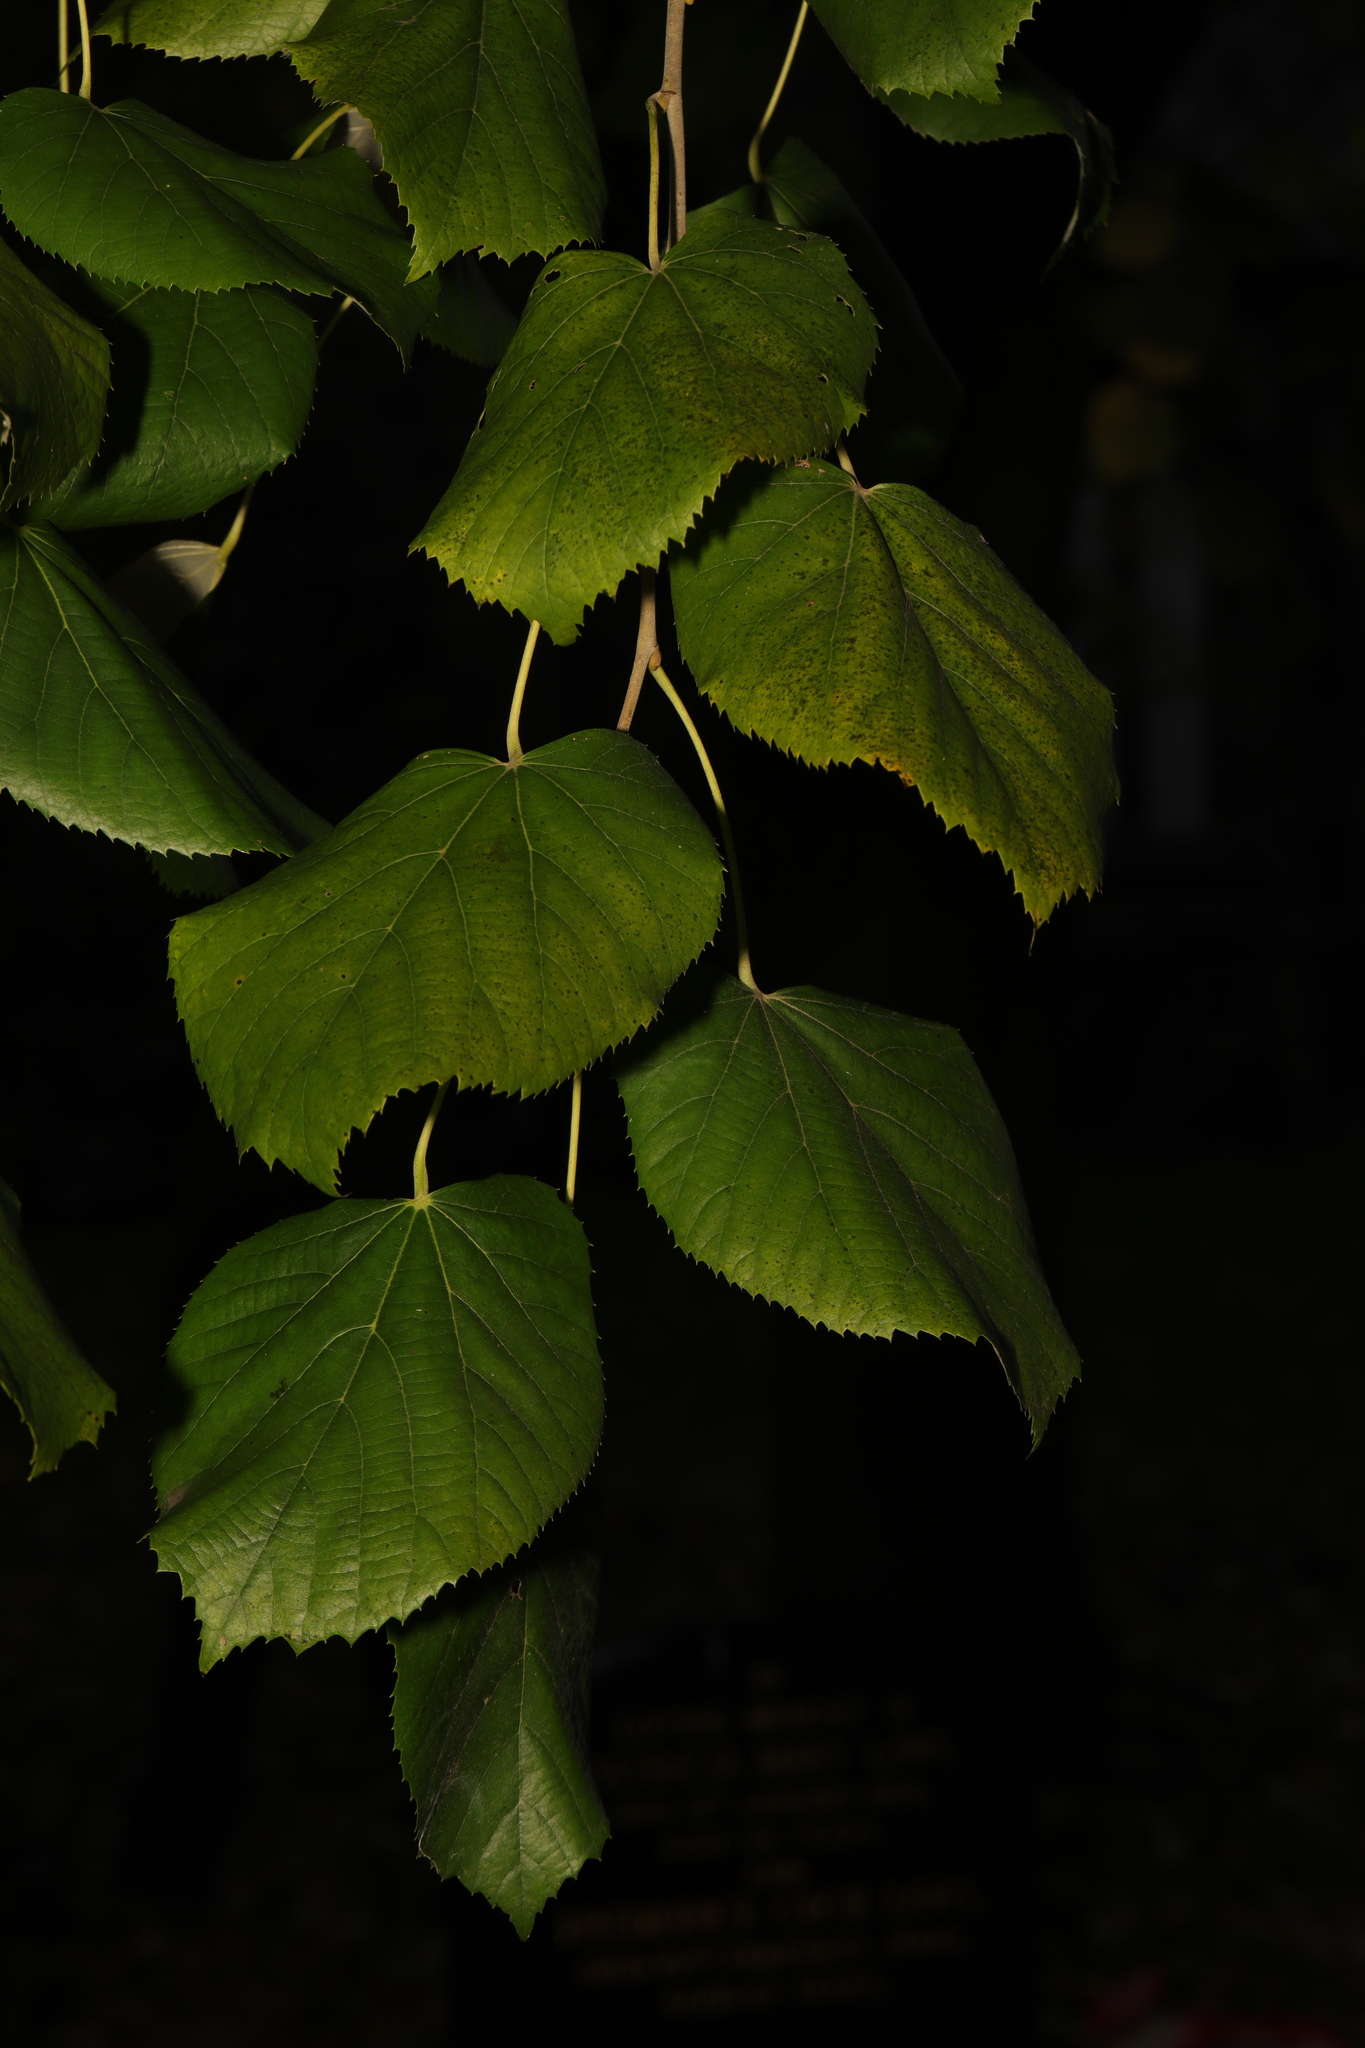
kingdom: Plantae
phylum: Tracheophyta
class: Magnoliopsida
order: Malvales
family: Malvaceae
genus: Tilia
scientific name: Tilia europaea
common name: European linden
